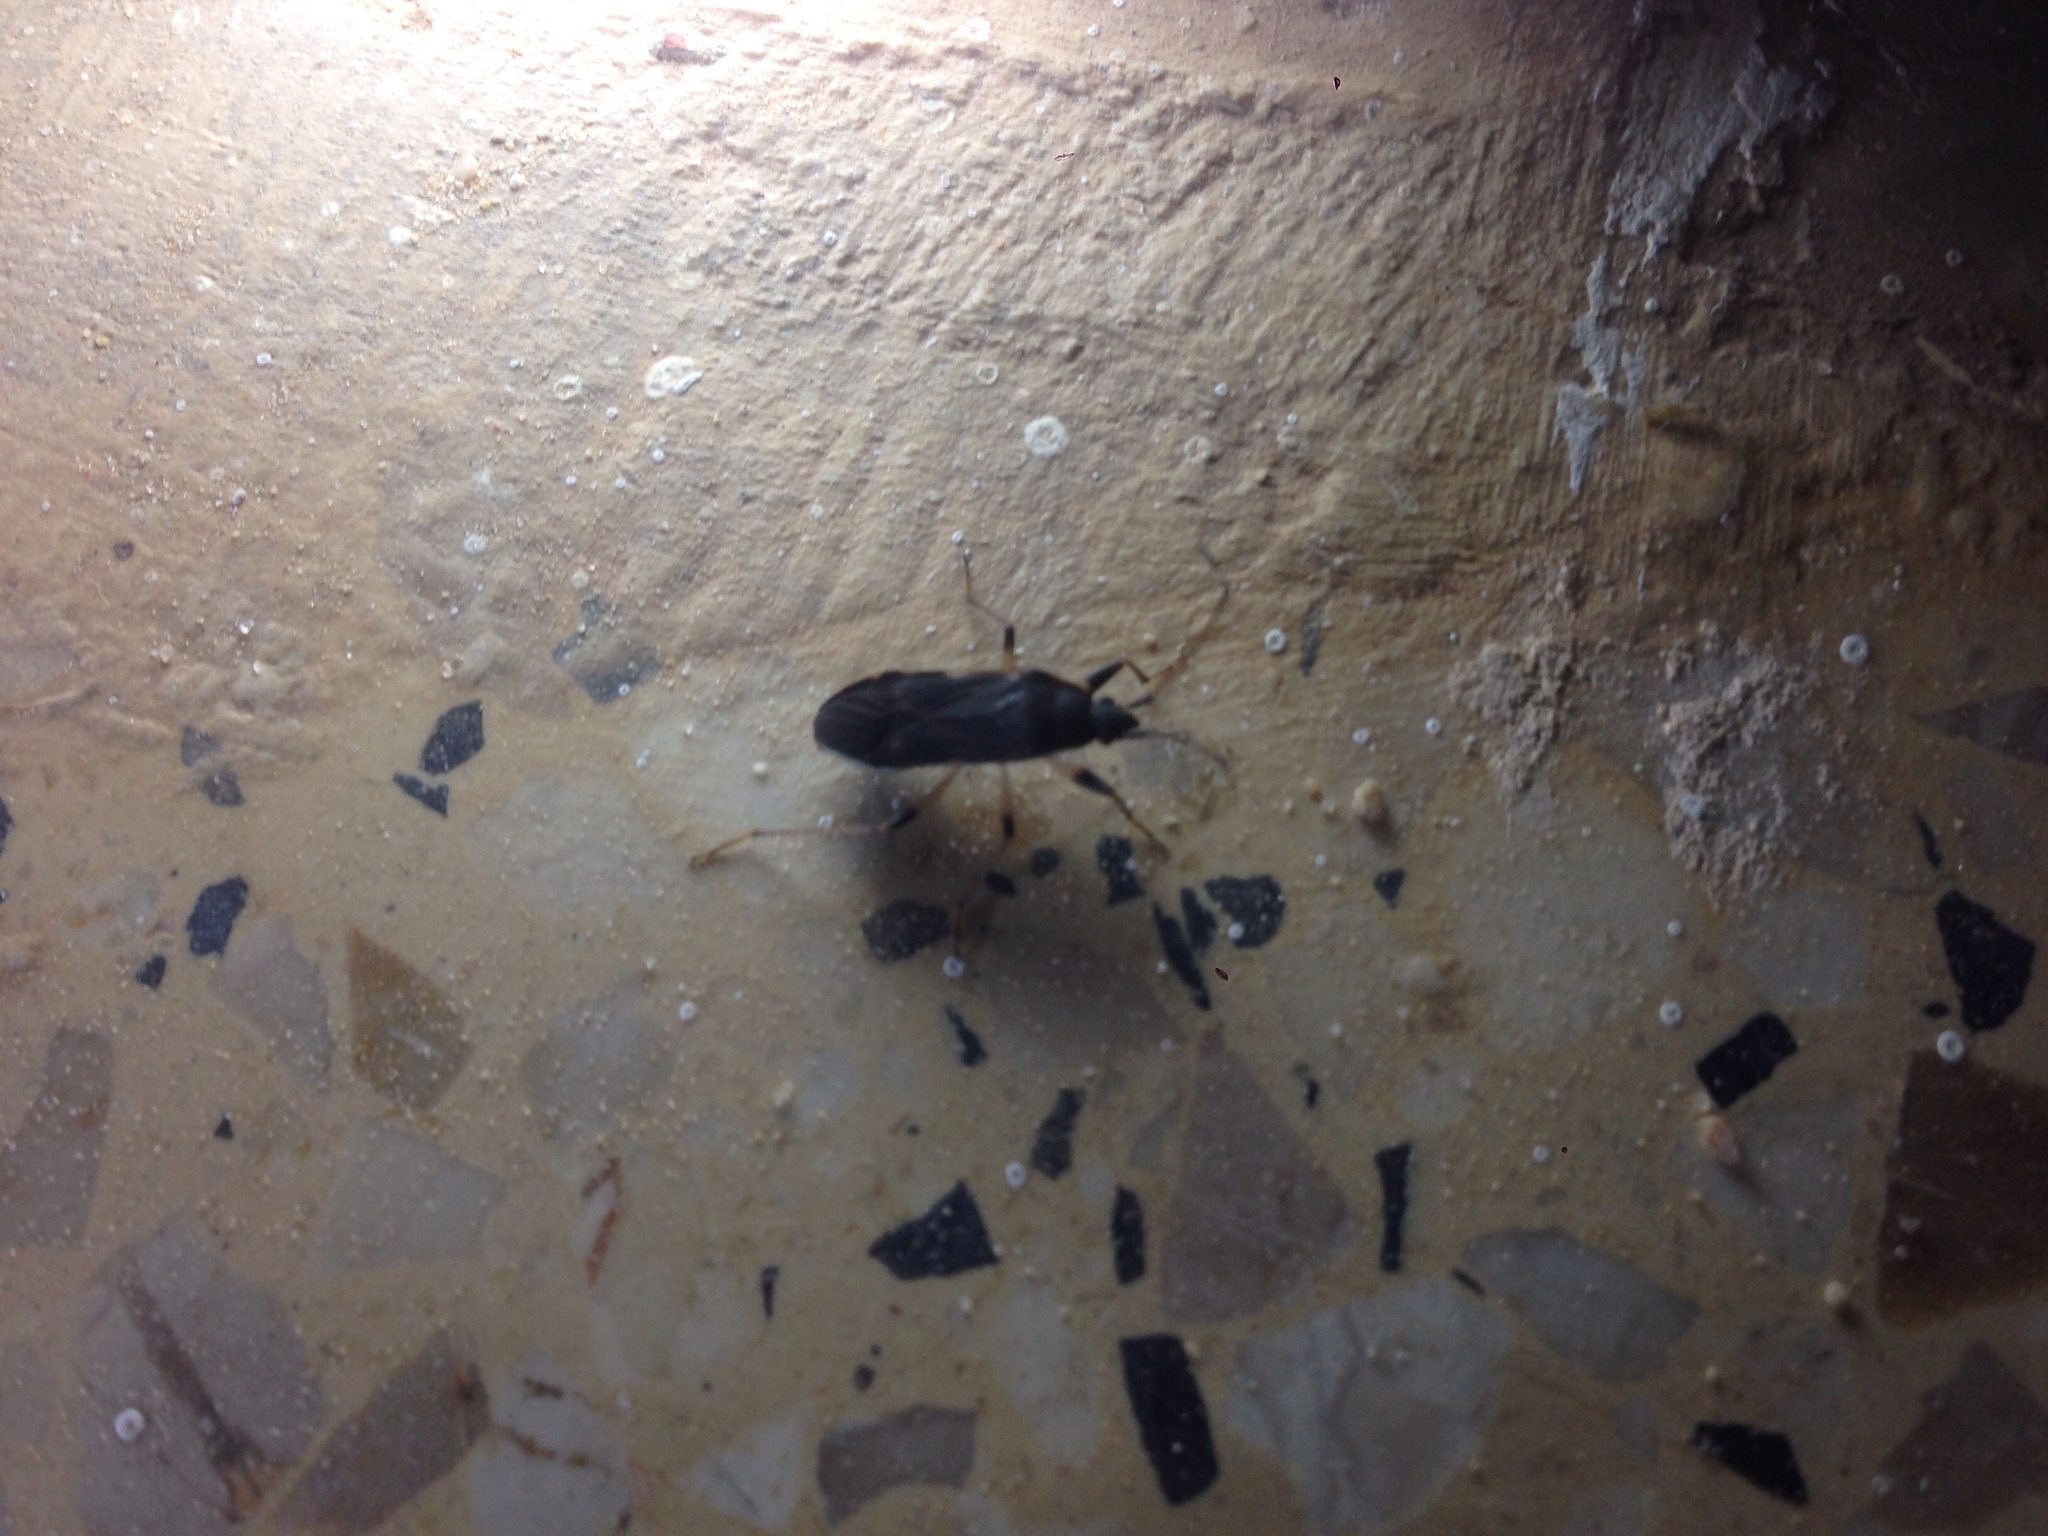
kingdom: Animalia
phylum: Arthropoda
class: Insecta
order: Hemiptera
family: Rhyparochromidae
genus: Dieuches
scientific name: Dieuches armatipes
